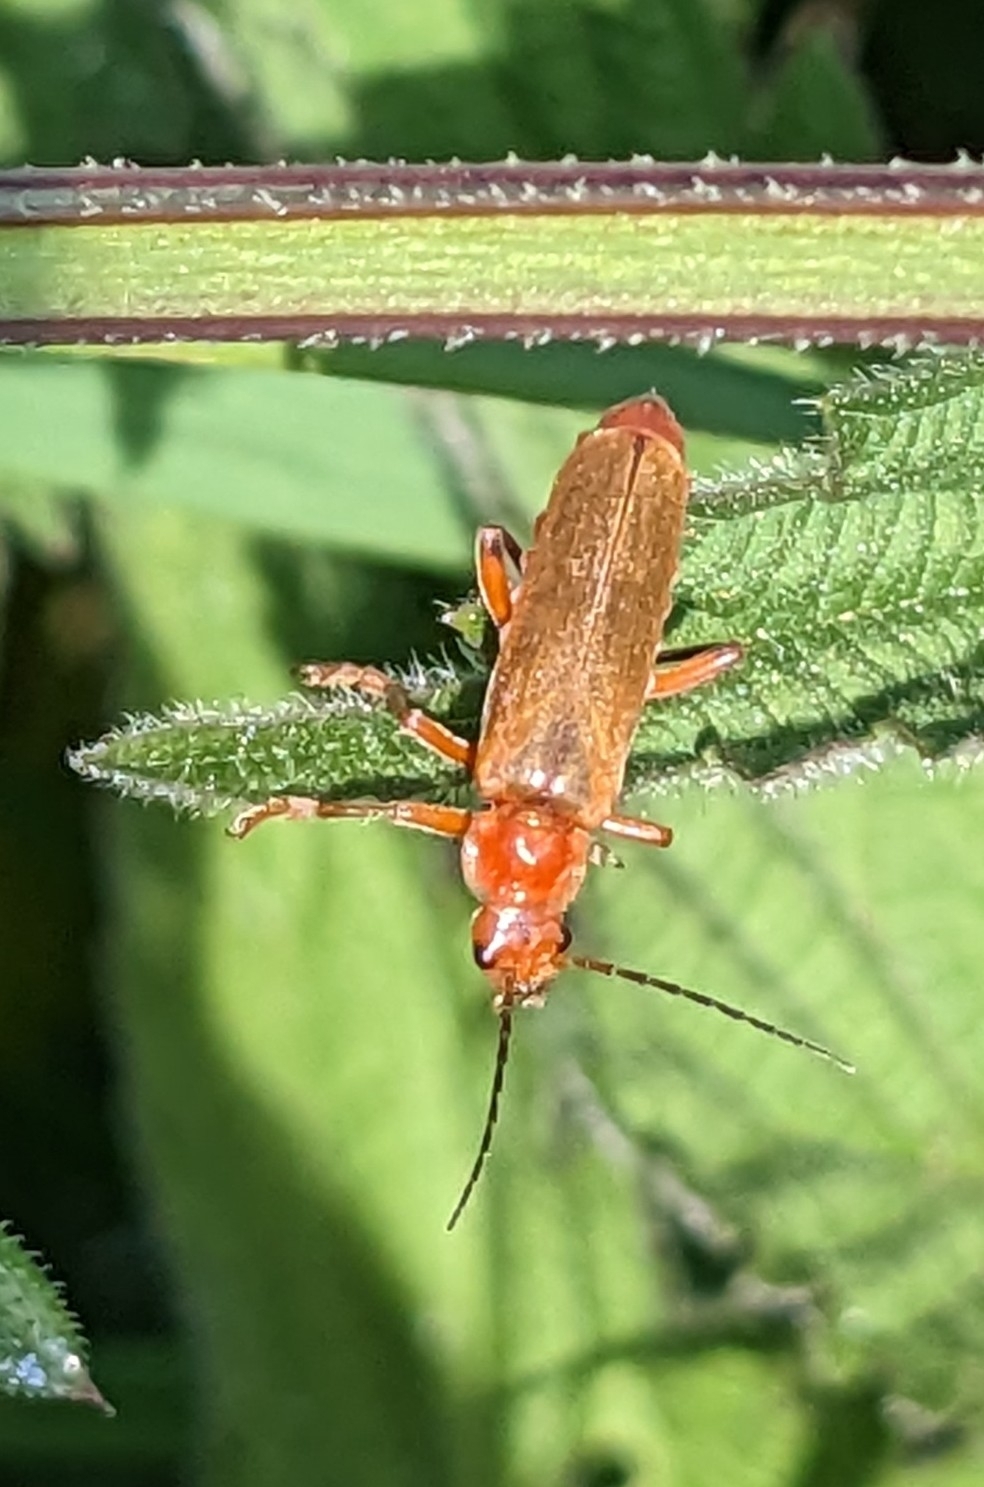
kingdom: Animalia
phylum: Arthropoda
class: Insecta
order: Coleoptera
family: Cantharidae
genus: Cantharis
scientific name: Cantharis livida
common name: Livid soldier beetle
